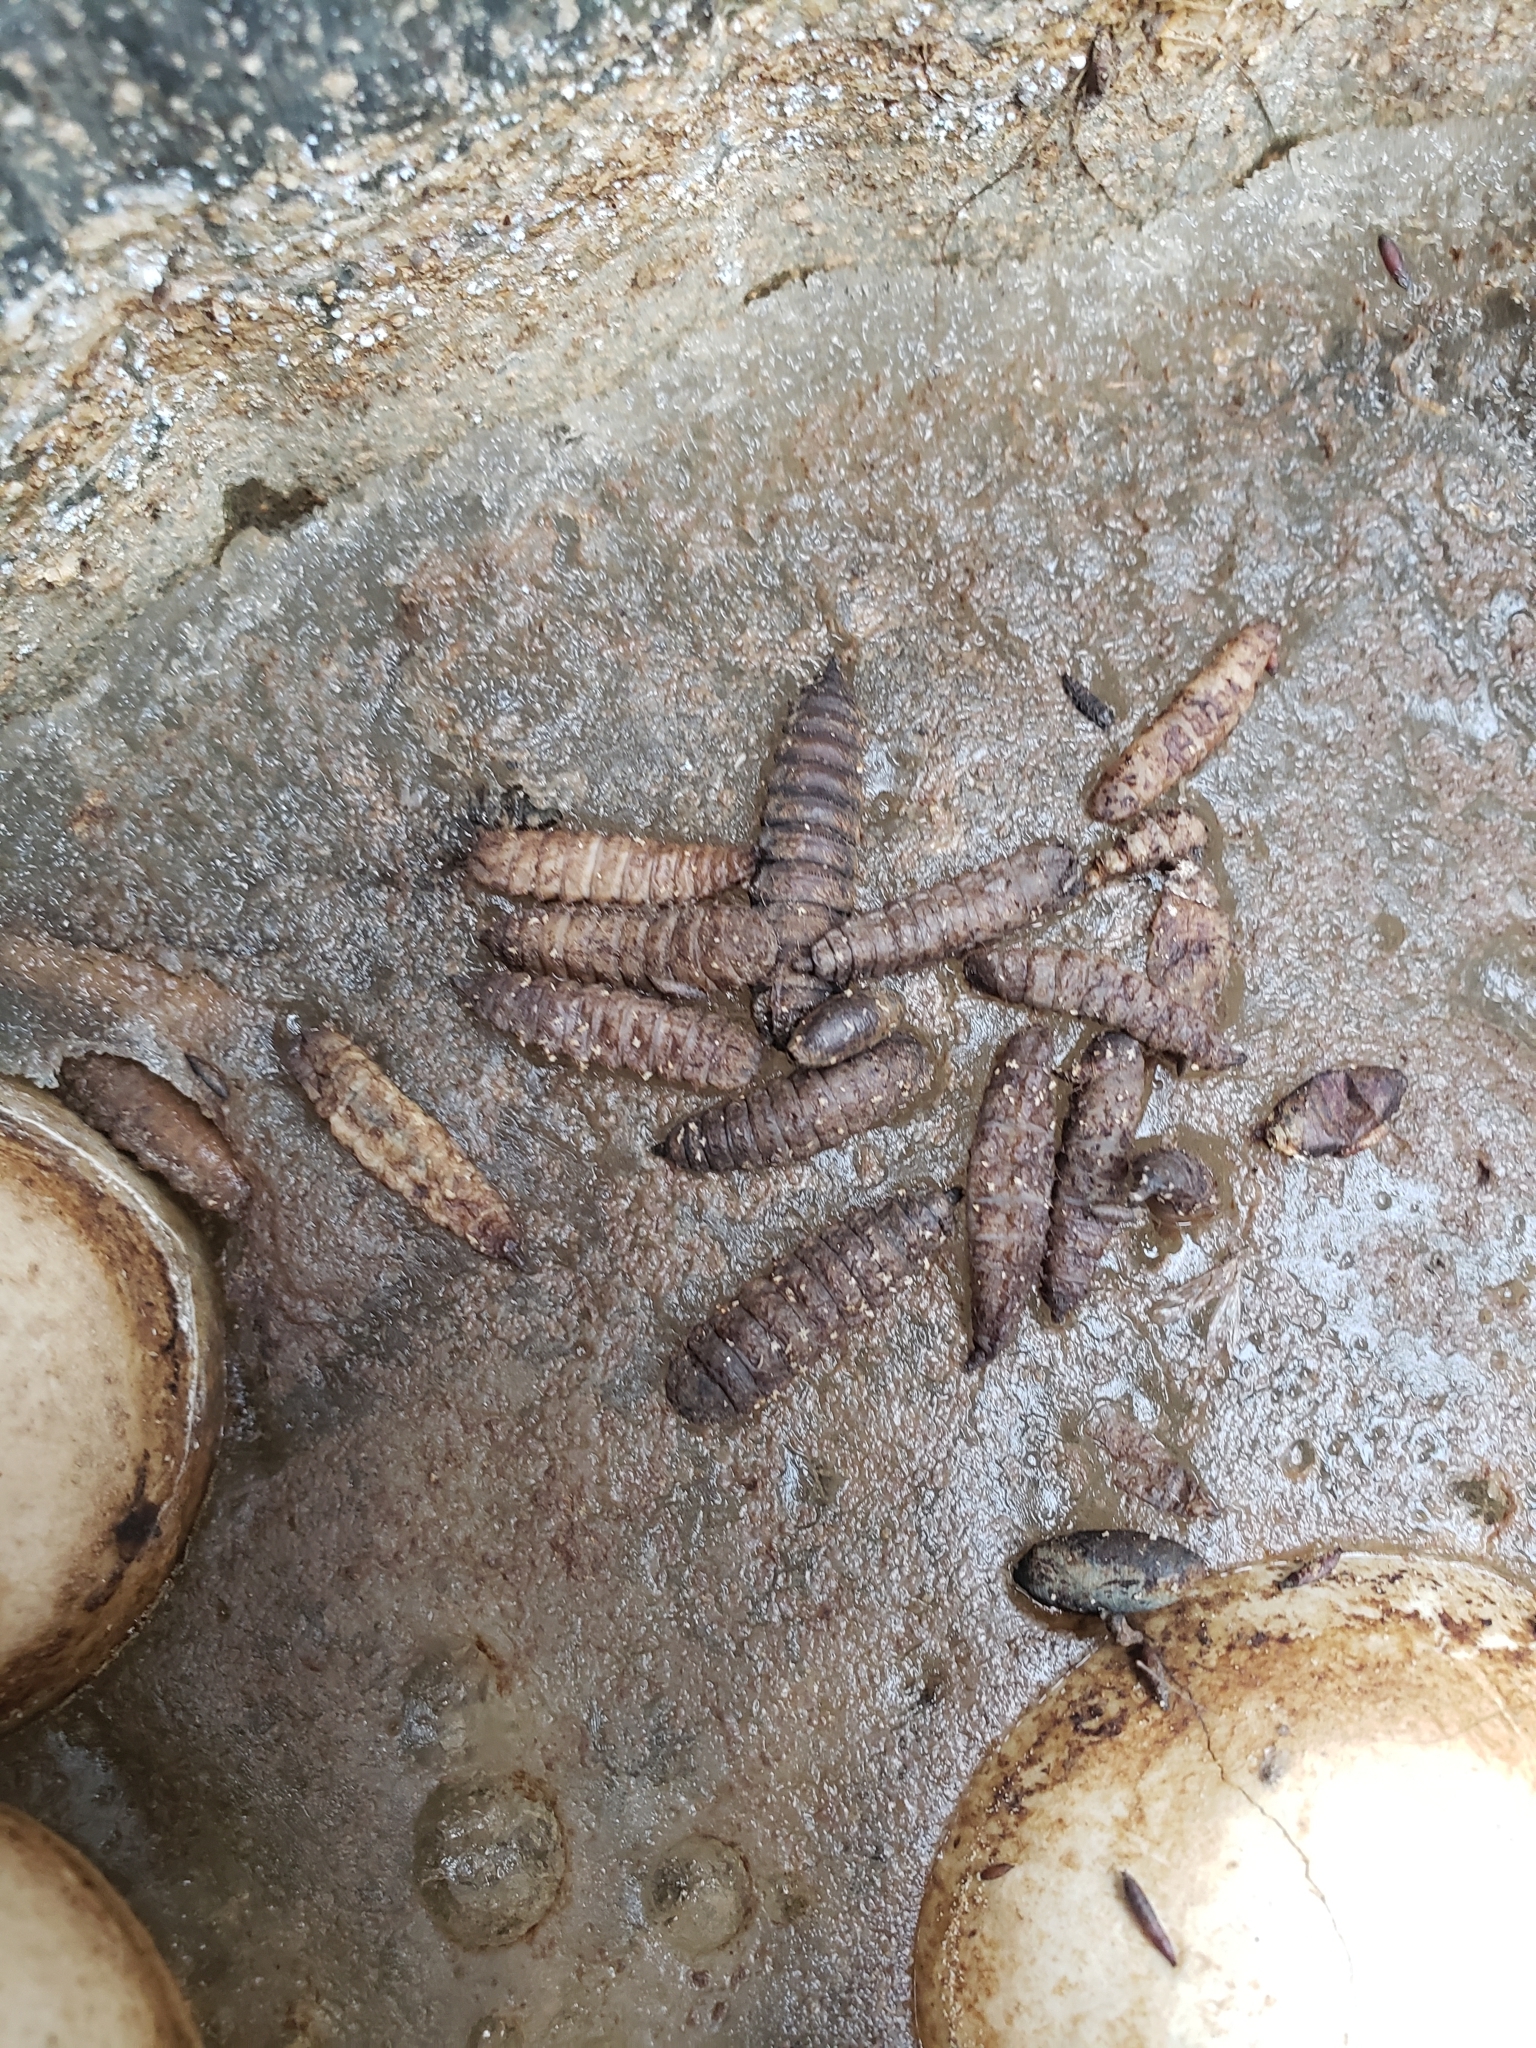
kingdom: Animalia
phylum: Arthropoda
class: Insecta
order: Diptera
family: Stratiomyidae
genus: Hermetia
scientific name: Hermetia illucens
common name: Black soldier fly
